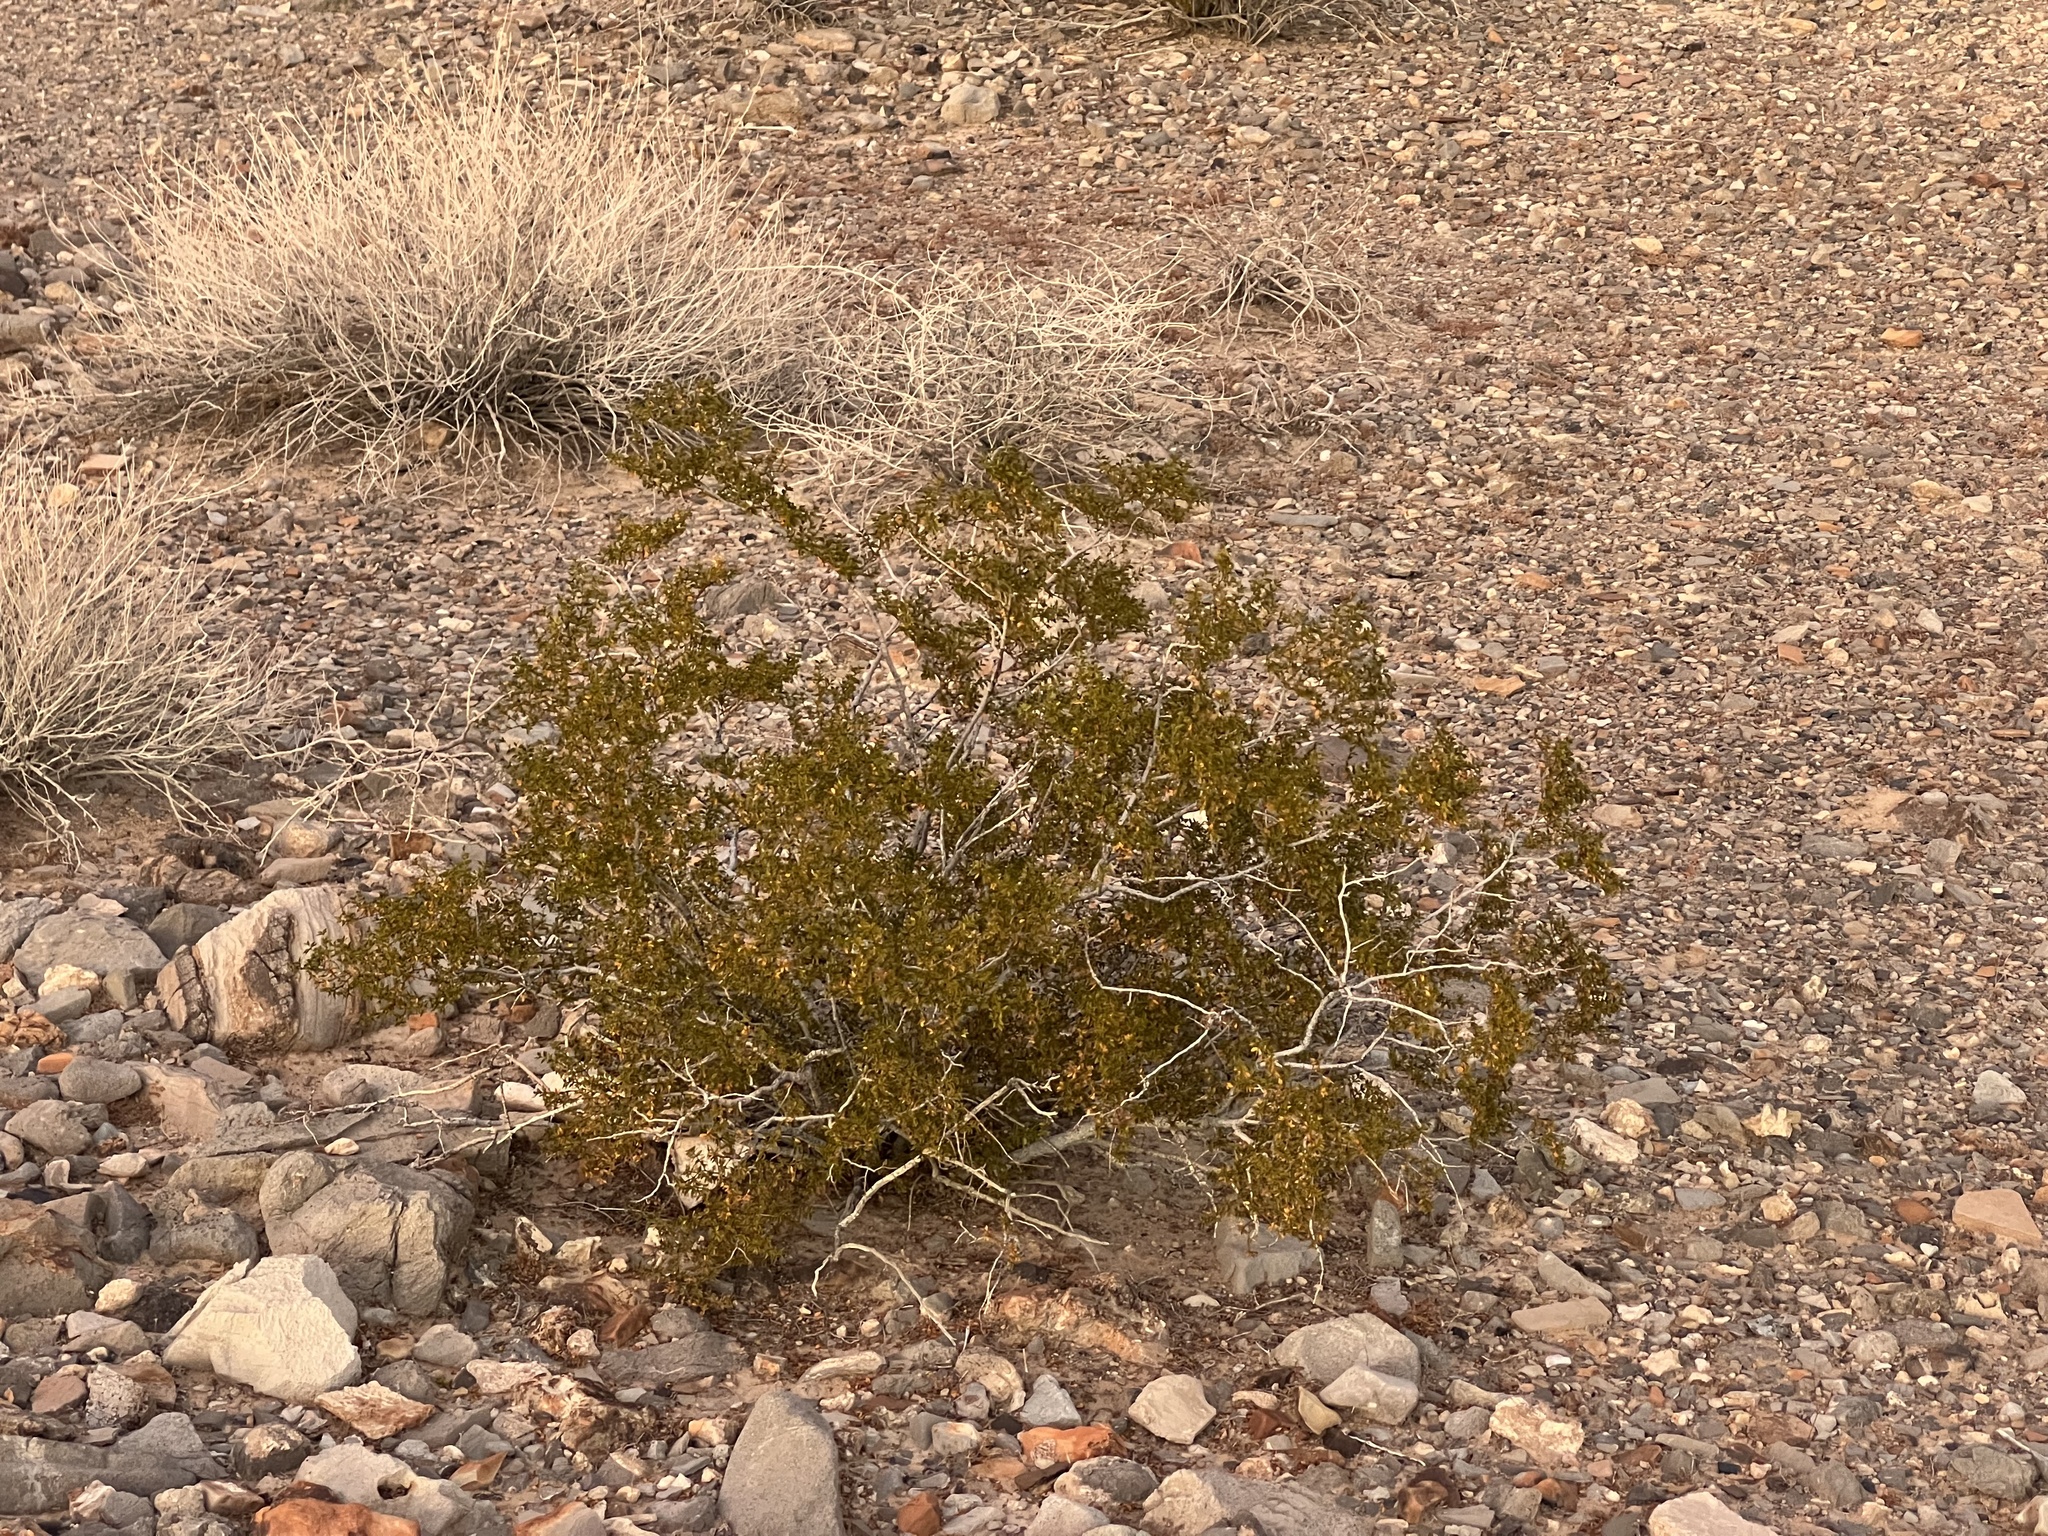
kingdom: Plantae
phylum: Tracheophyta
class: Magnoliopsida
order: Zygophyllales
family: Zygophyllaceae
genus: Larrea
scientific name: Larrea tridentata
